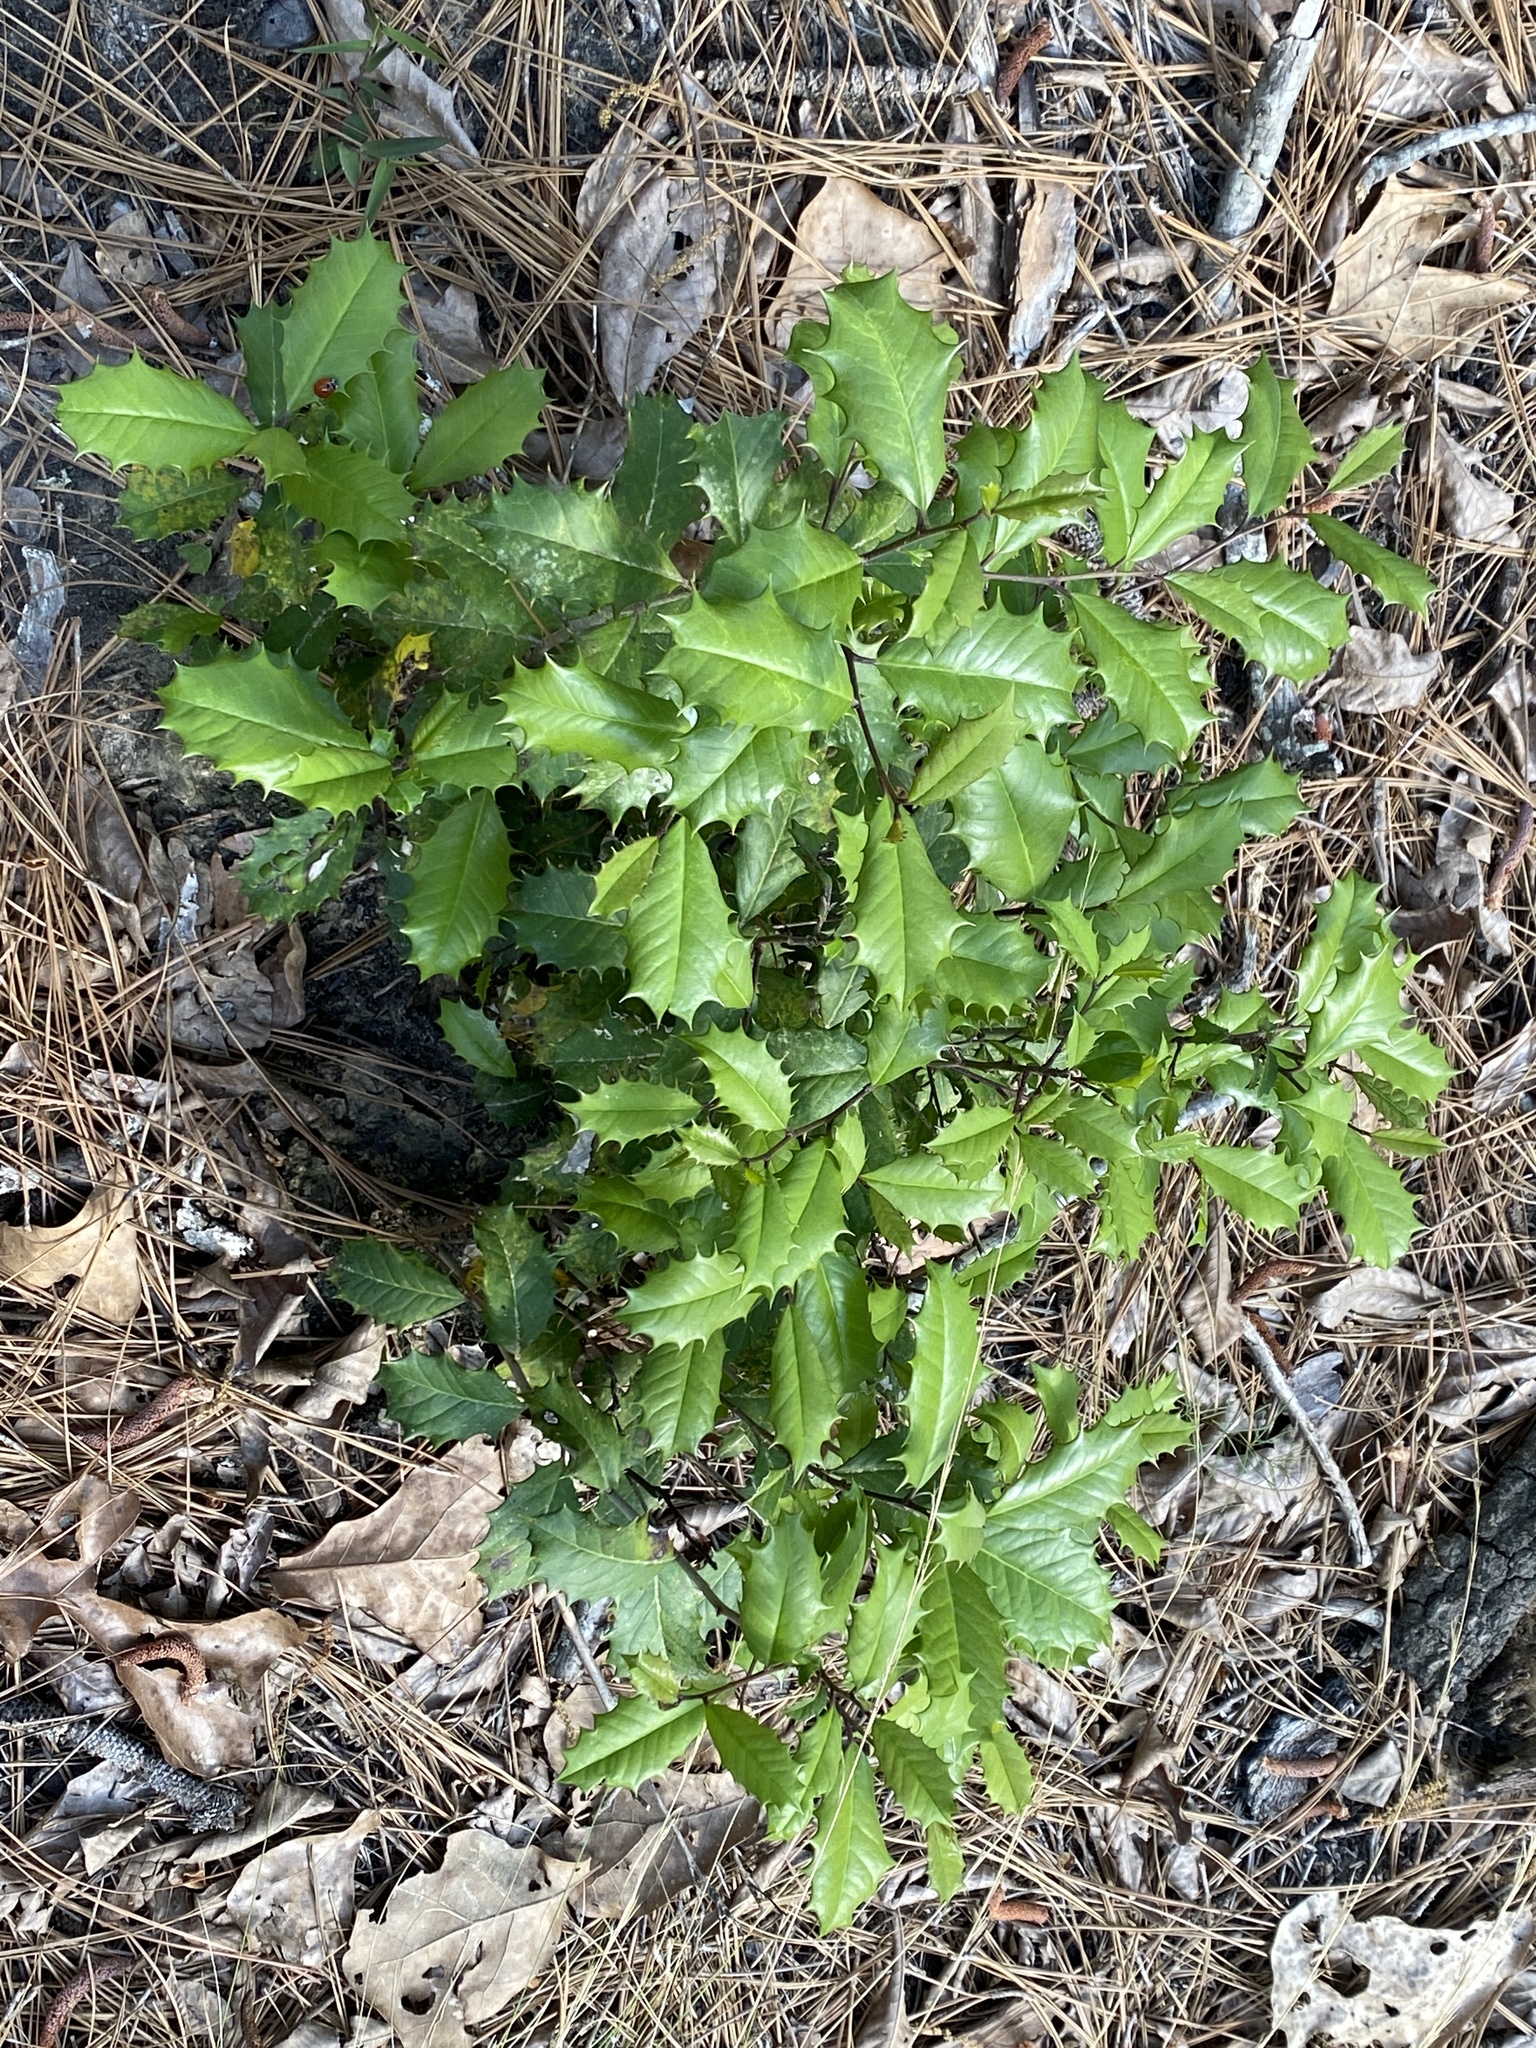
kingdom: Plantae
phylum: Tracheophyta
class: Magnoliopsida
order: Aquifoliales
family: Aquifoliaceae
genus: Ilex
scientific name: Ilex opaca
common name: American holly
